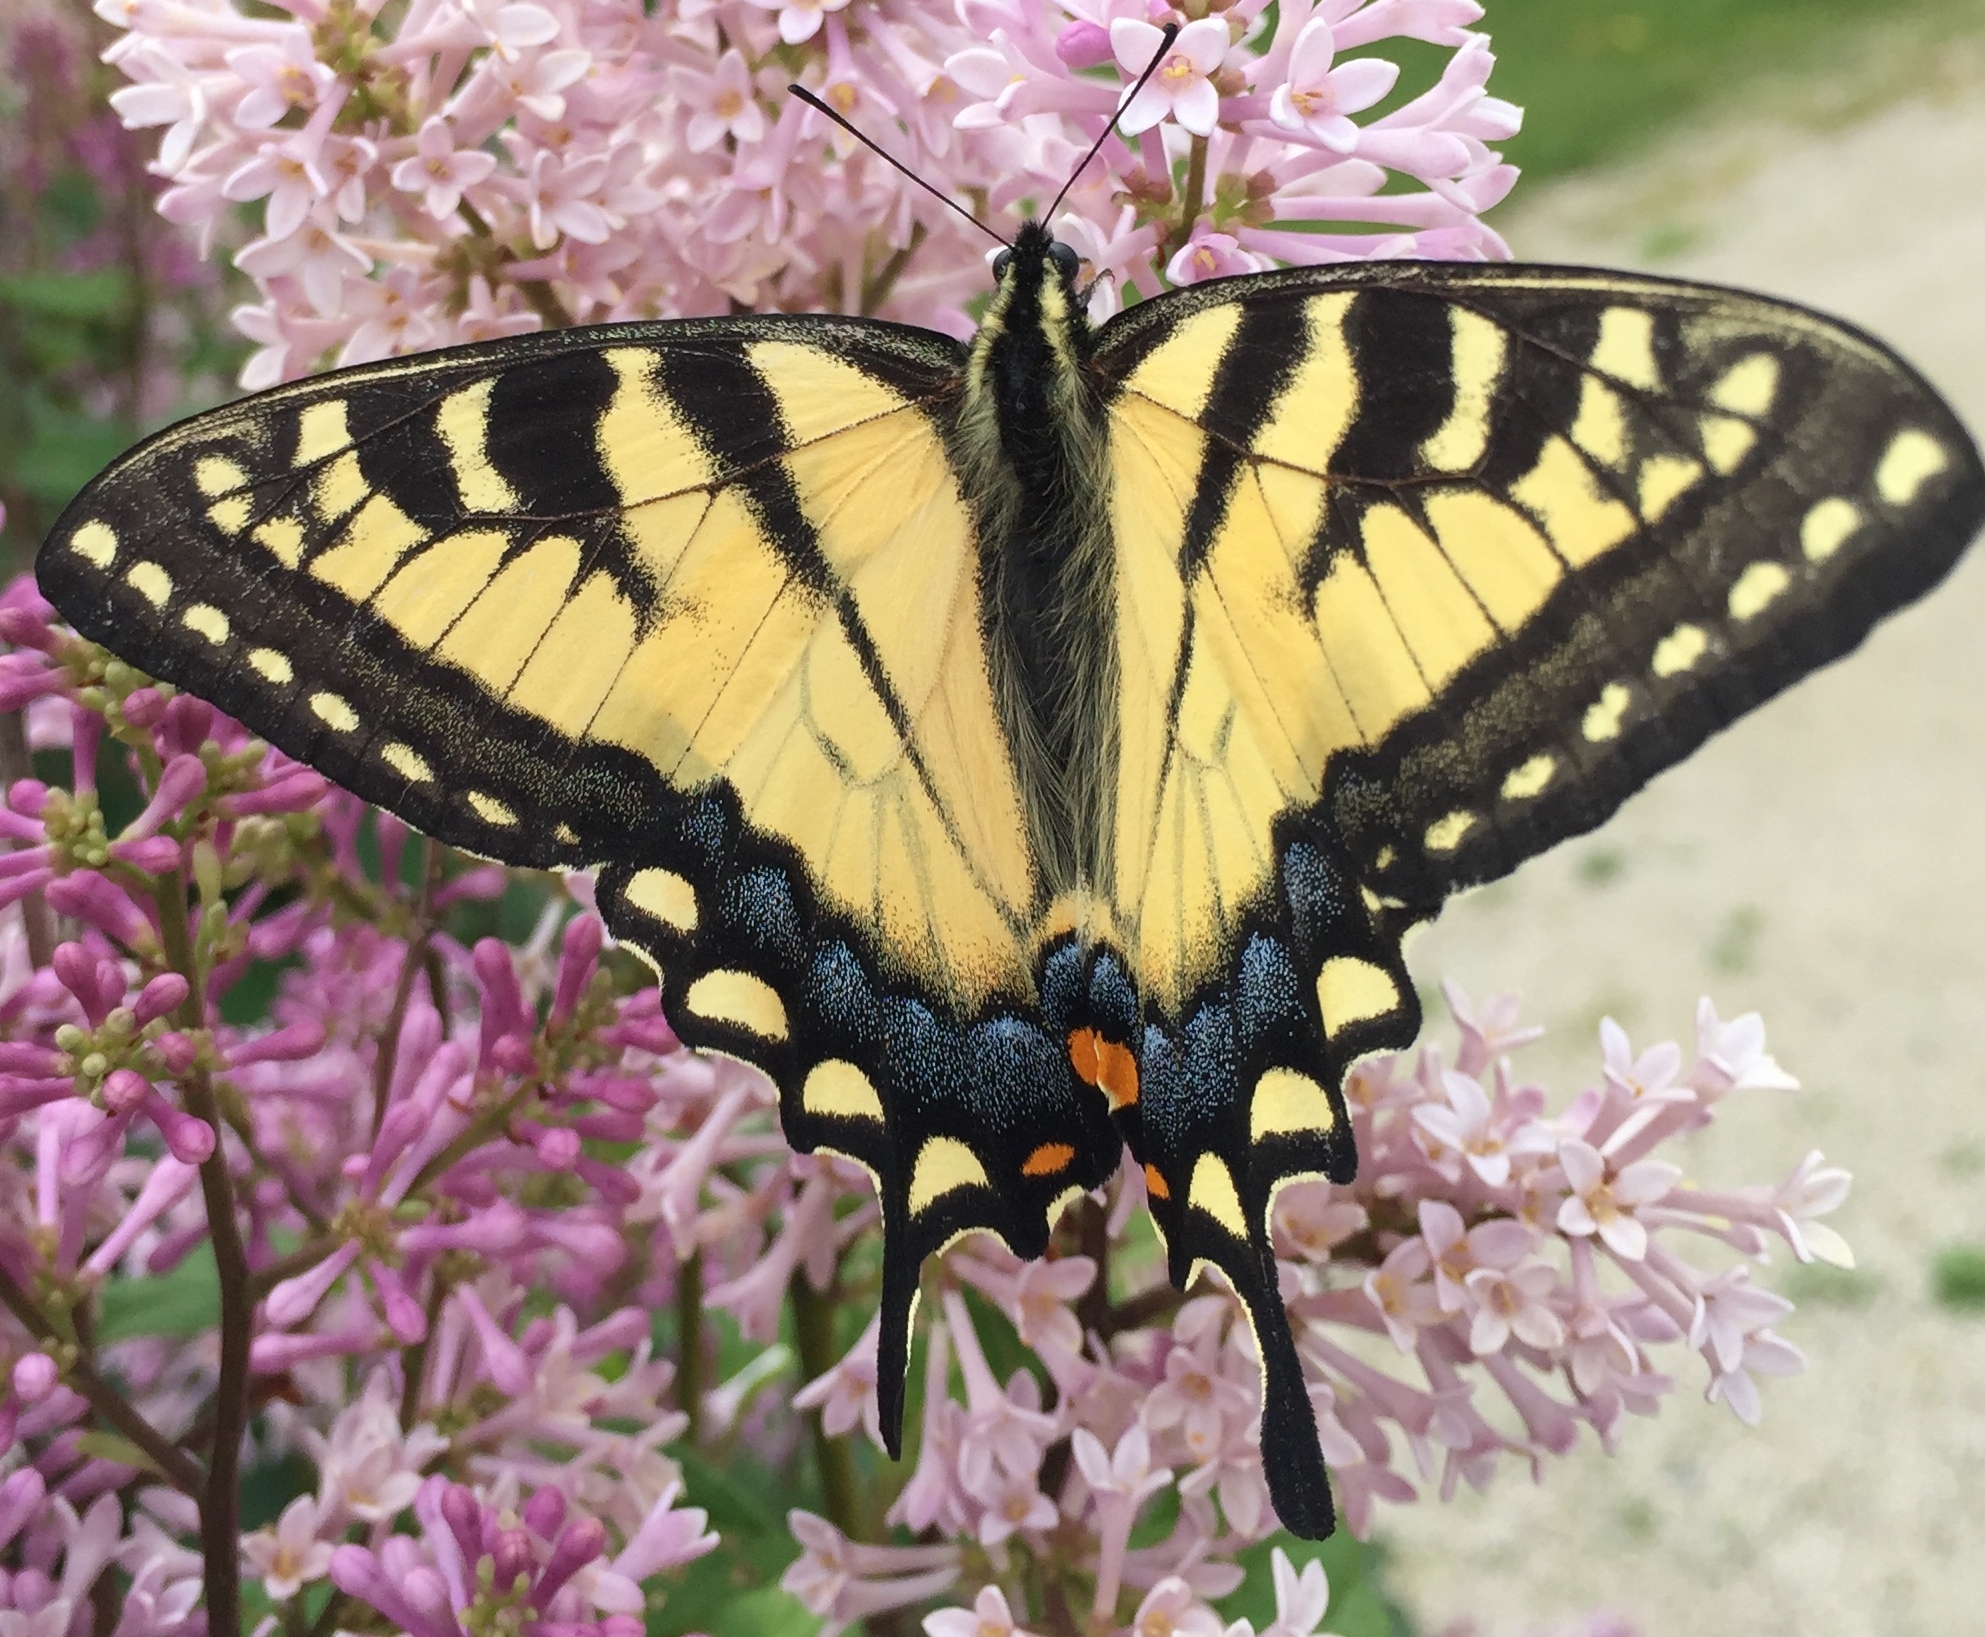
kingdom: Animalia
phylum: Arthropoda
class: Insecta
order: Lepidoptera
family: Papilionidae
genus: Papilio
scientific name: Papilio glaucus
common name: Tiger swallowtail
